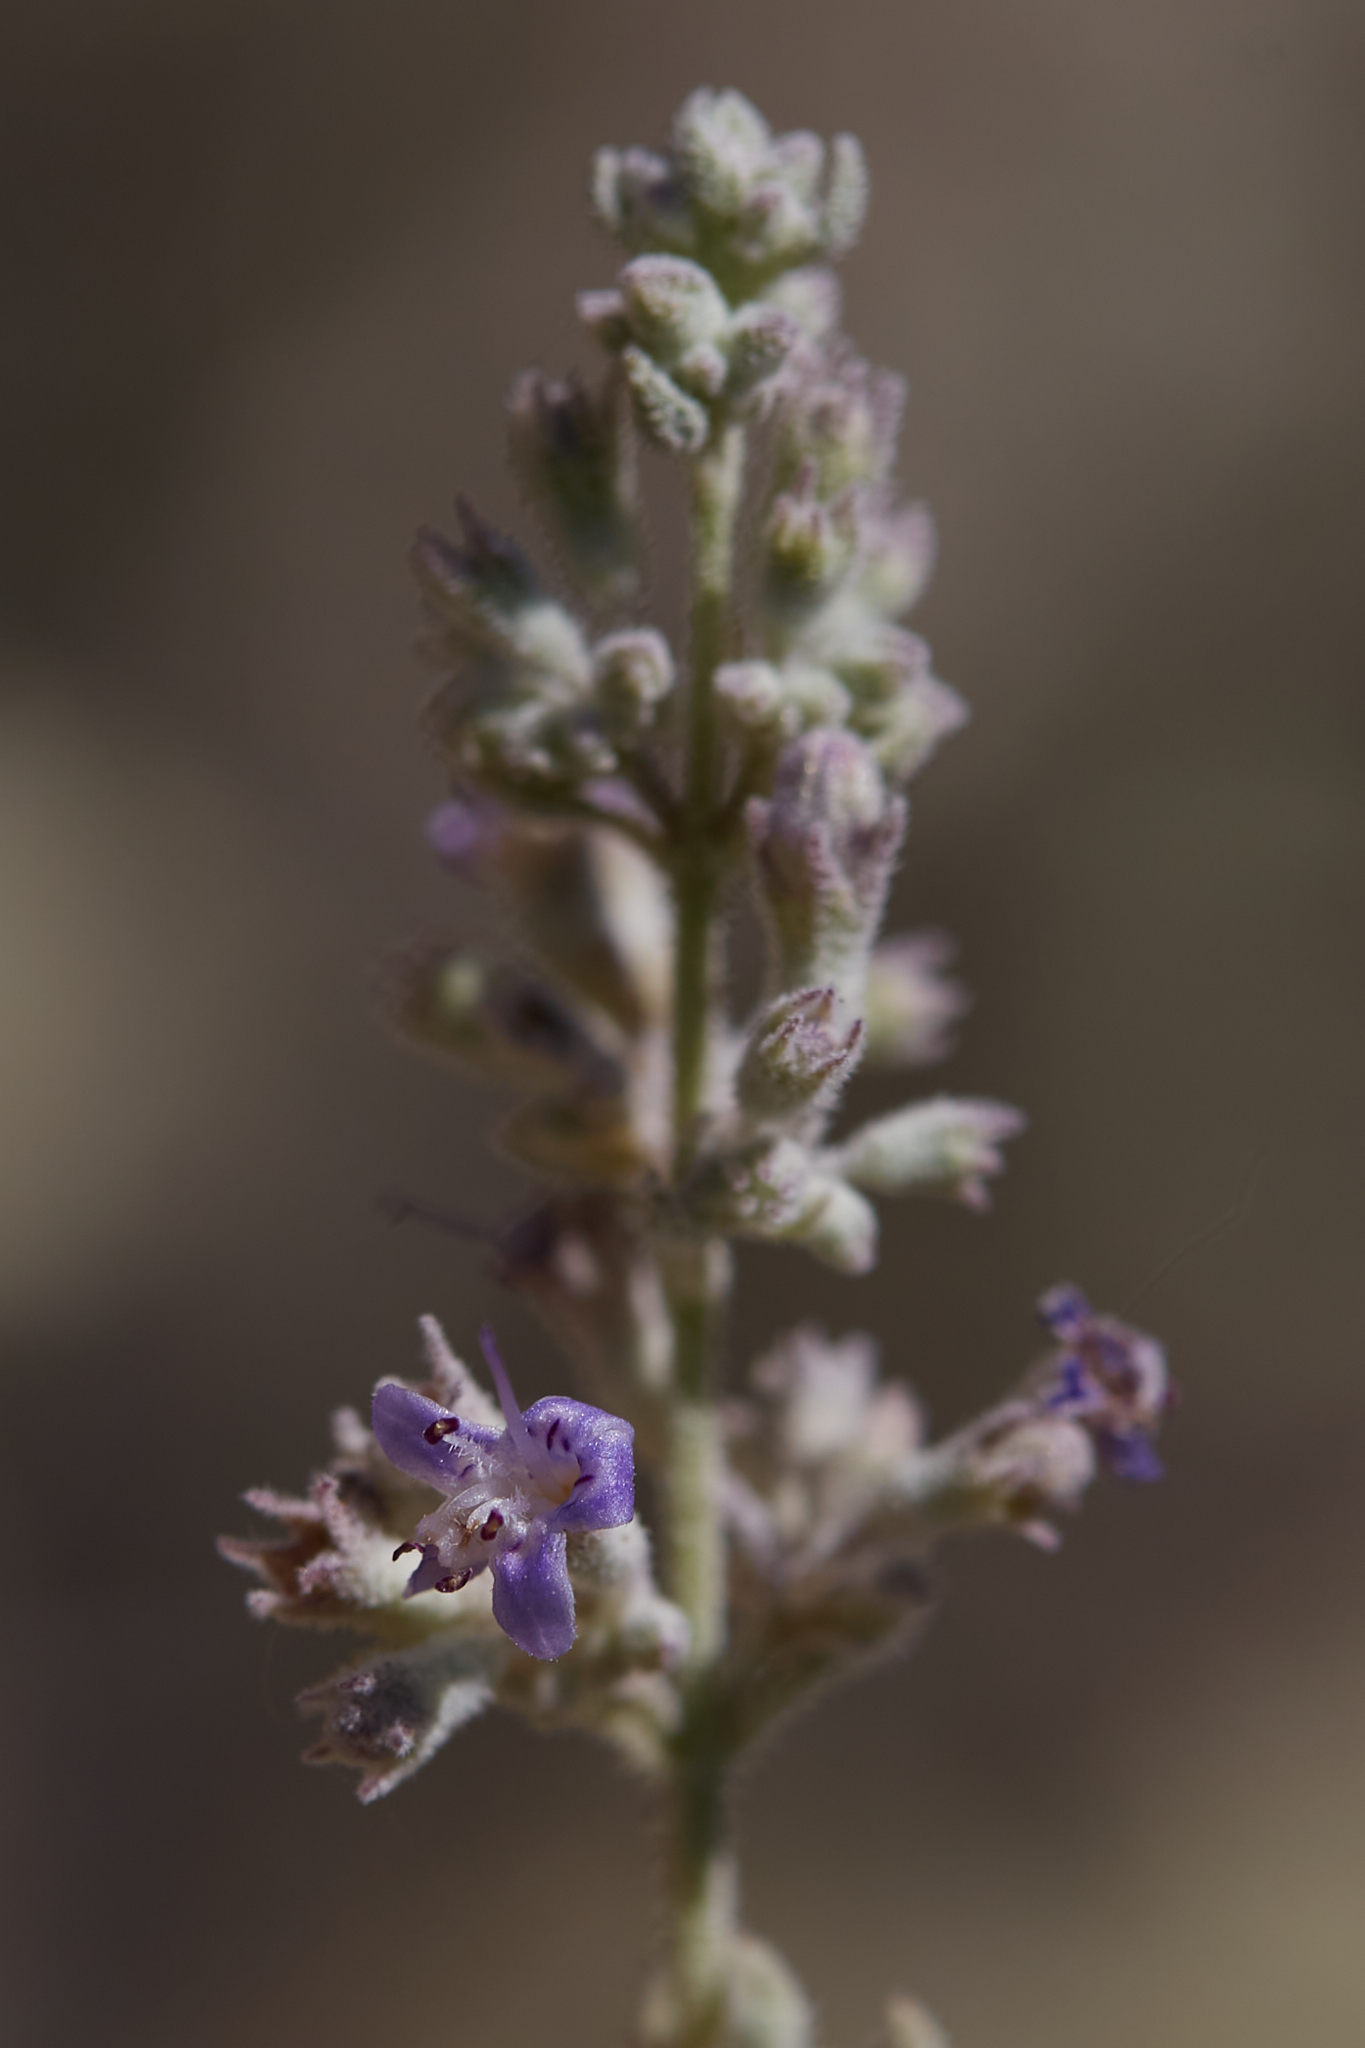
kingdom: Plantae
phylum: Tracheophyta
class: Magnoliopsida
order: Lamiales
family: Lamiaceae
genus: Condea
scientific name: Condea emoryi
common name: Chia
